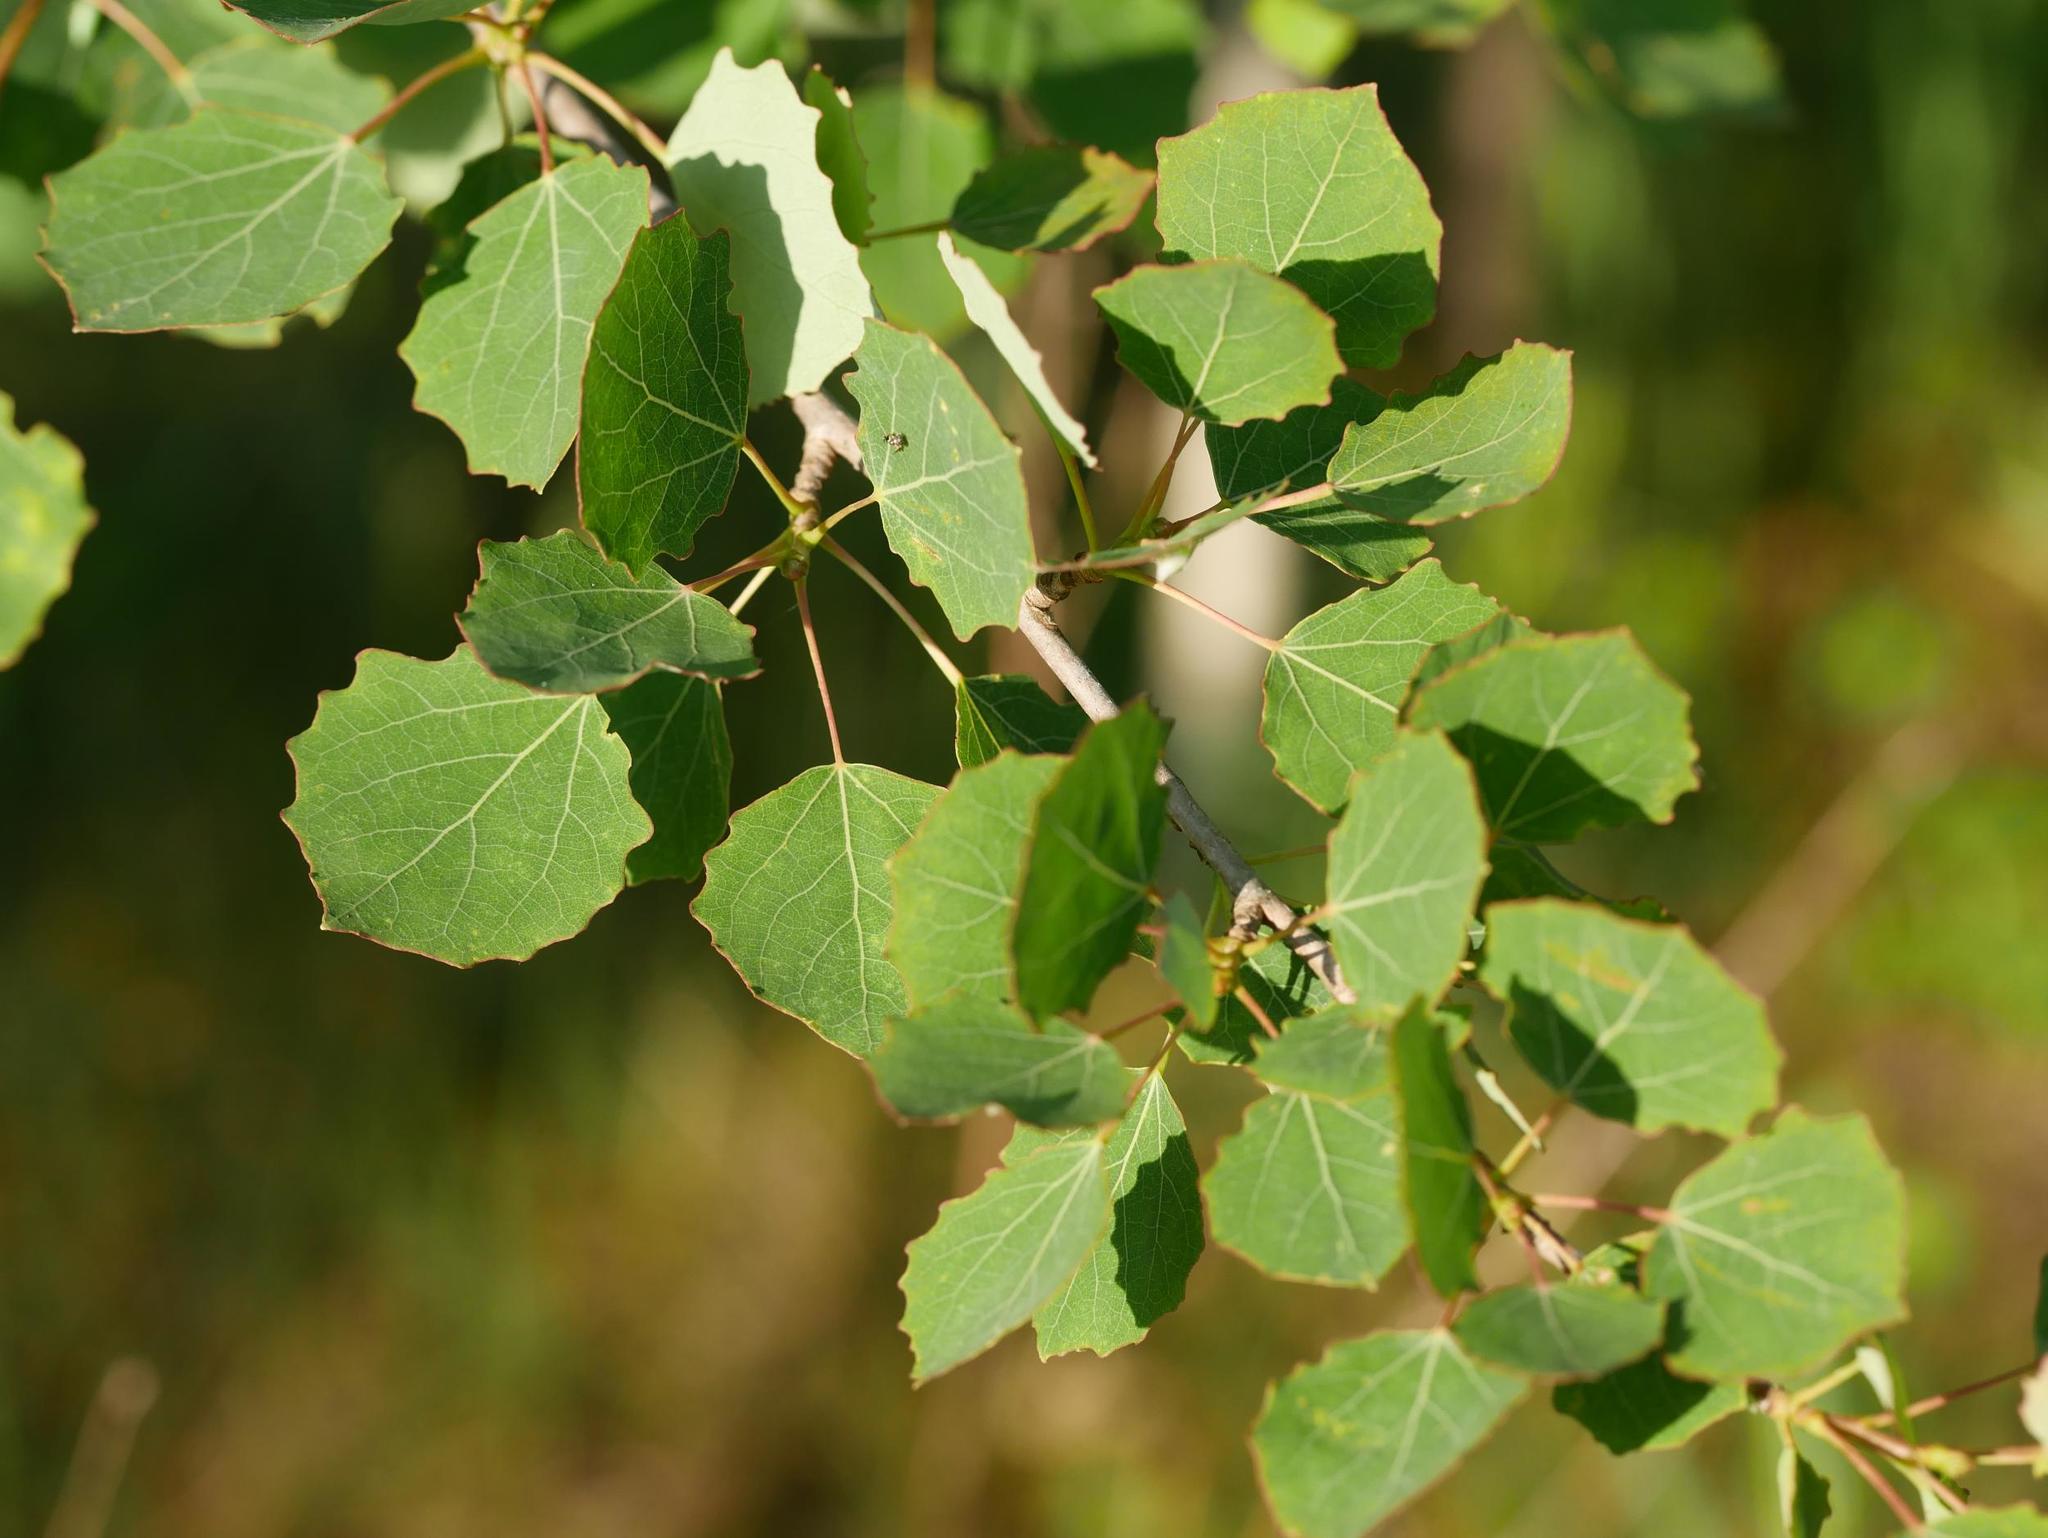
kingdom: Plantae
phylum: Tracheophyta
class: Magnoliopsida
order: Malpighiales
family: Salicaceae
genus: Populus
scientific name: Populus tremula
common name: European aspen
